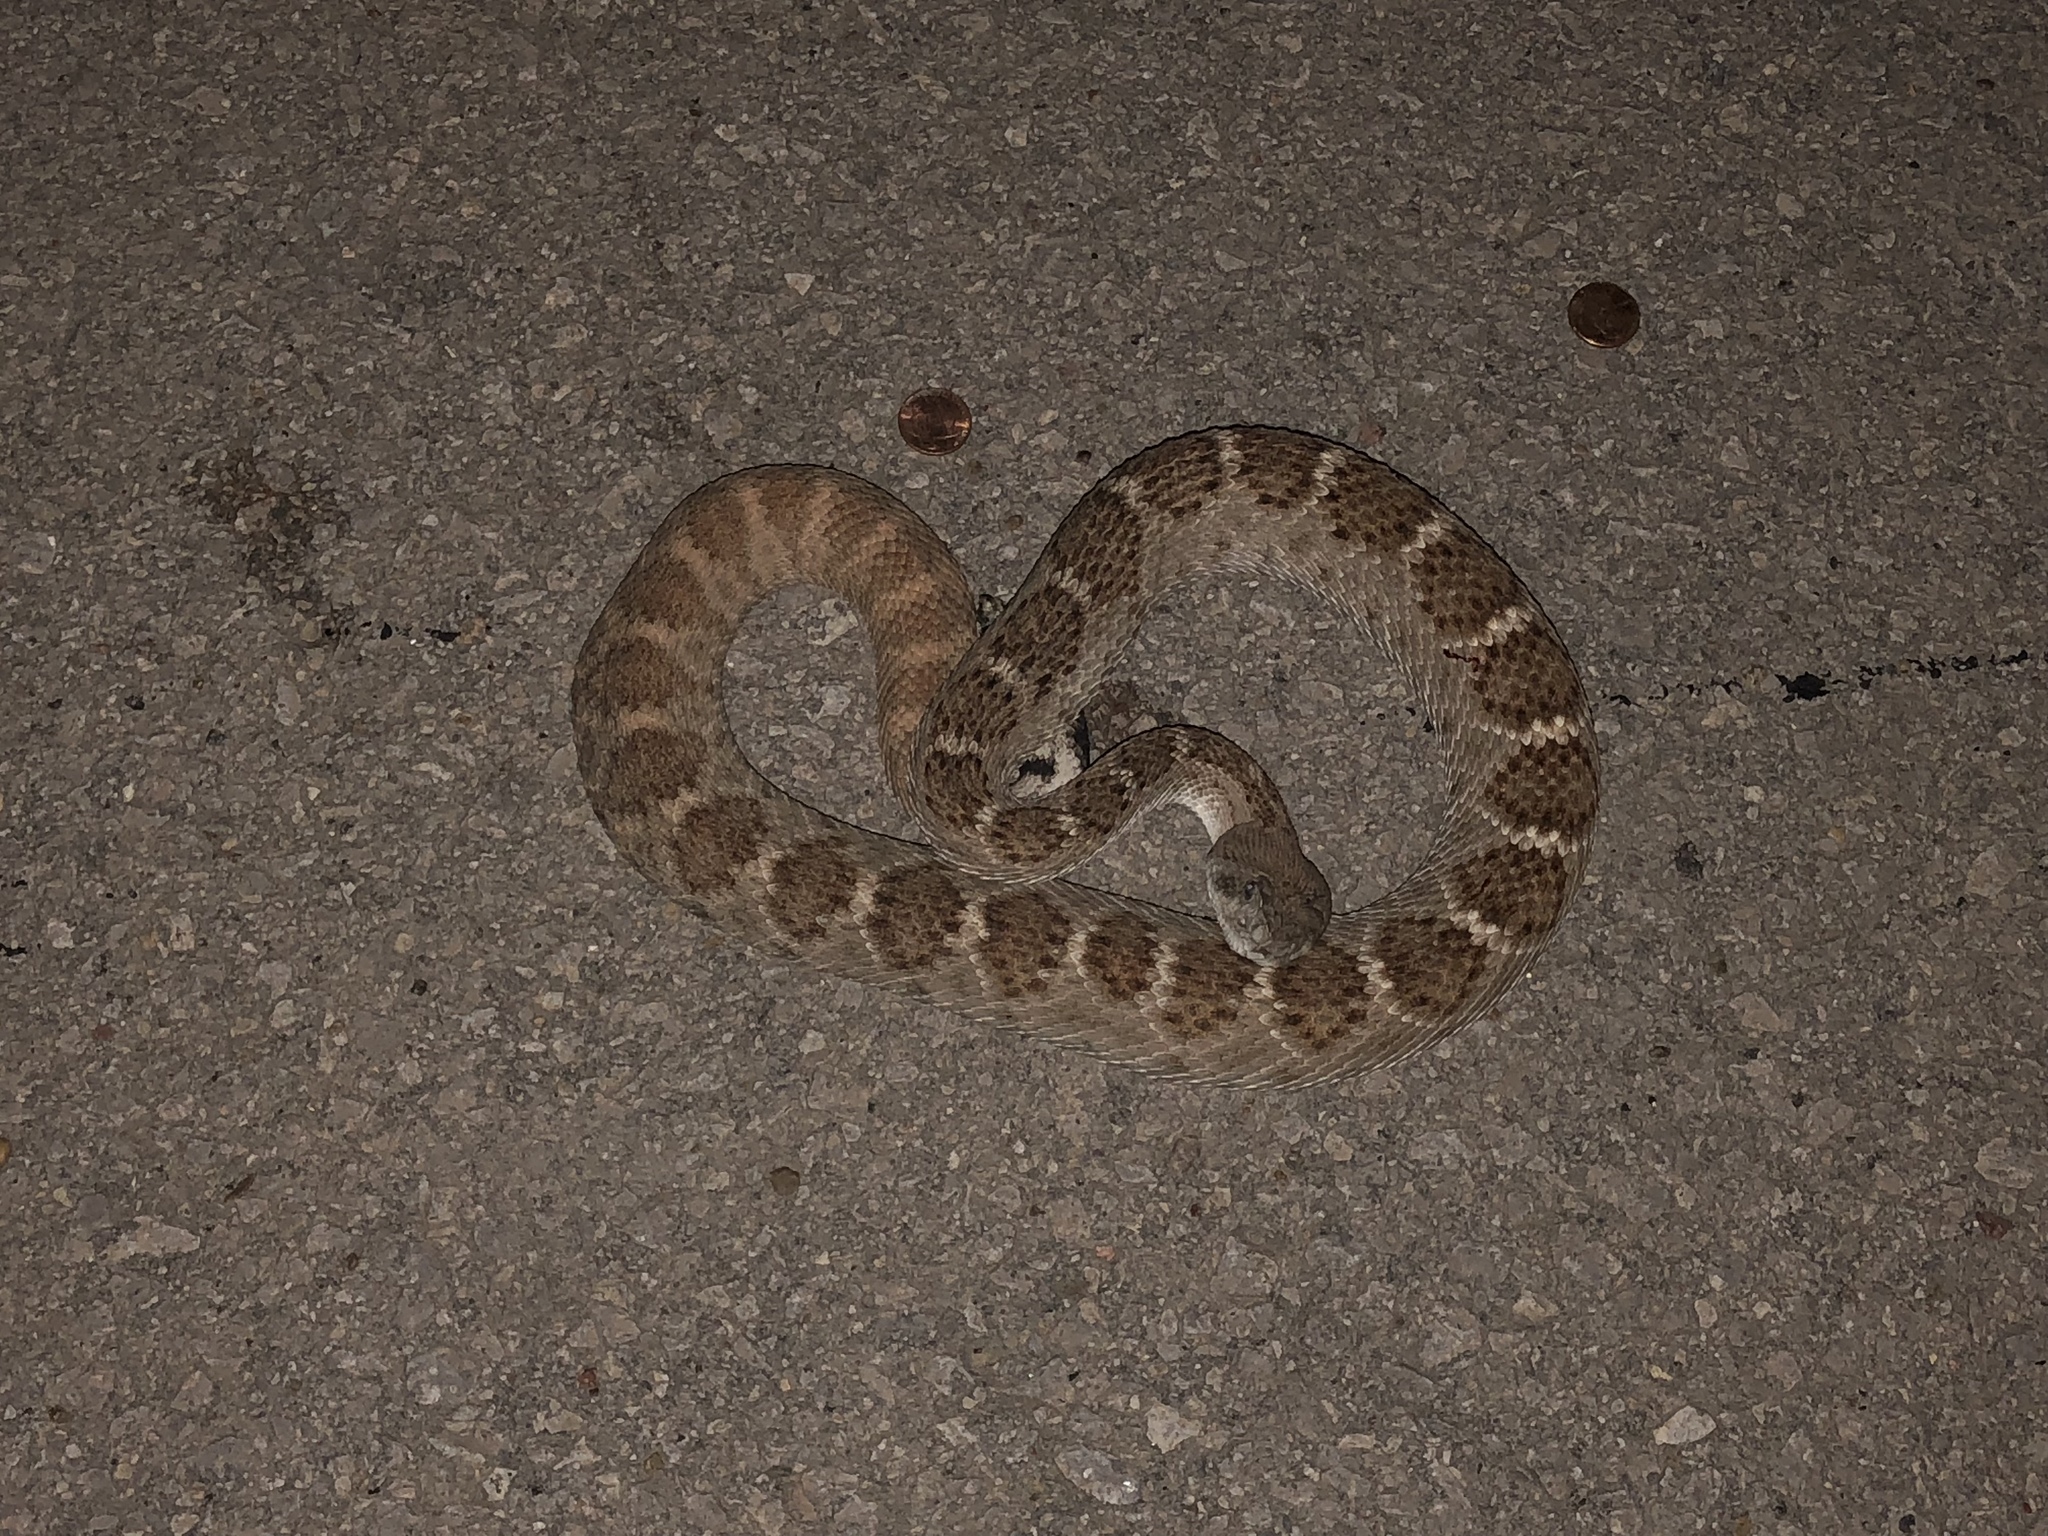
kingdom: Animalia
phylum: Chordata
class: Squamata
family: Viperidae
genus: Crotalus
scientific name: Crotalus atrox
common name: Western diamond-backed rattlesnake
